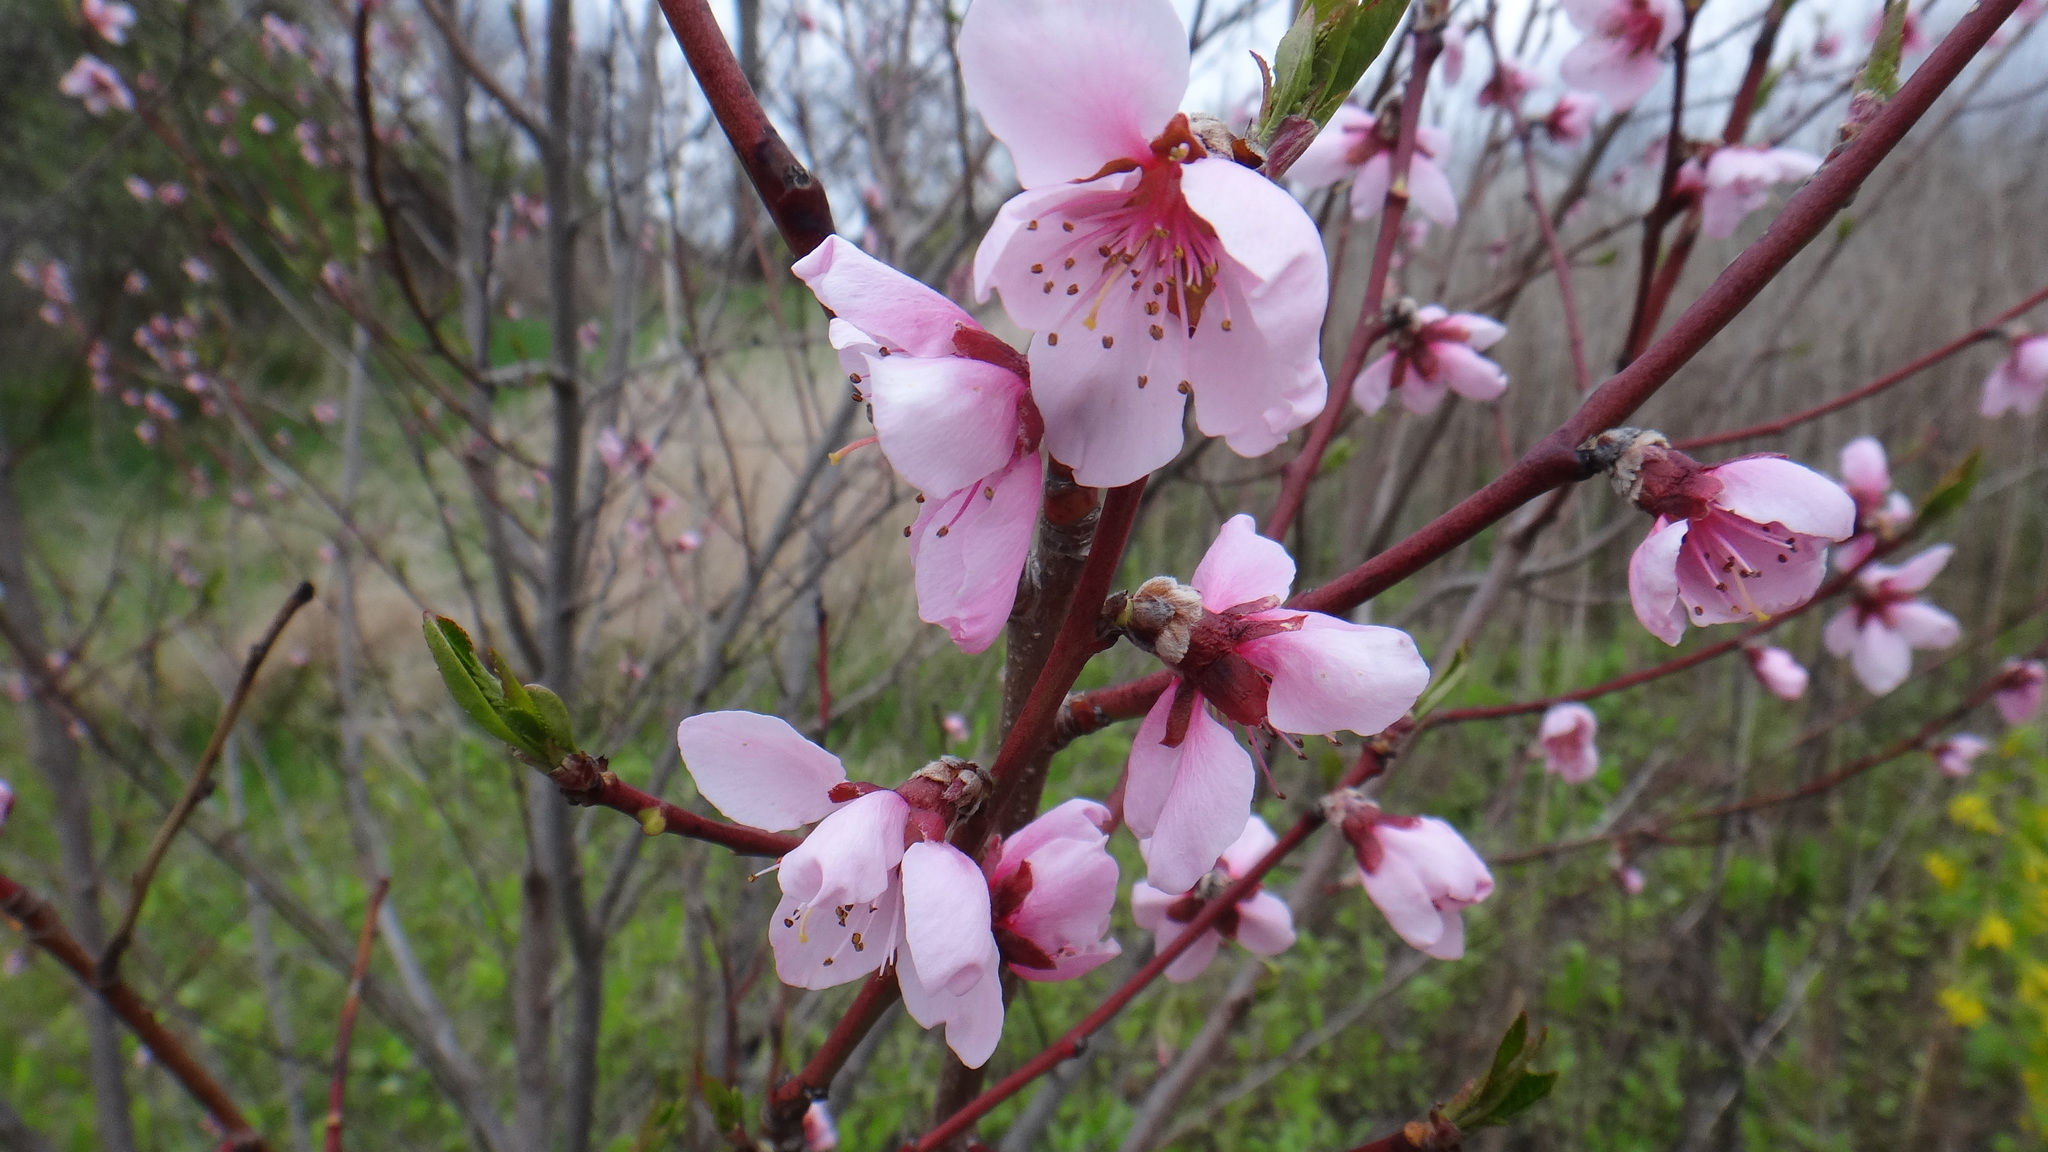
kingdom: Plantae
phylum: Tracheophyta
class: Magnoliopsida
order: Rosales
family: Rosaceae
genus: Prunus
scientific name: Prunus persica
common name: Peach
